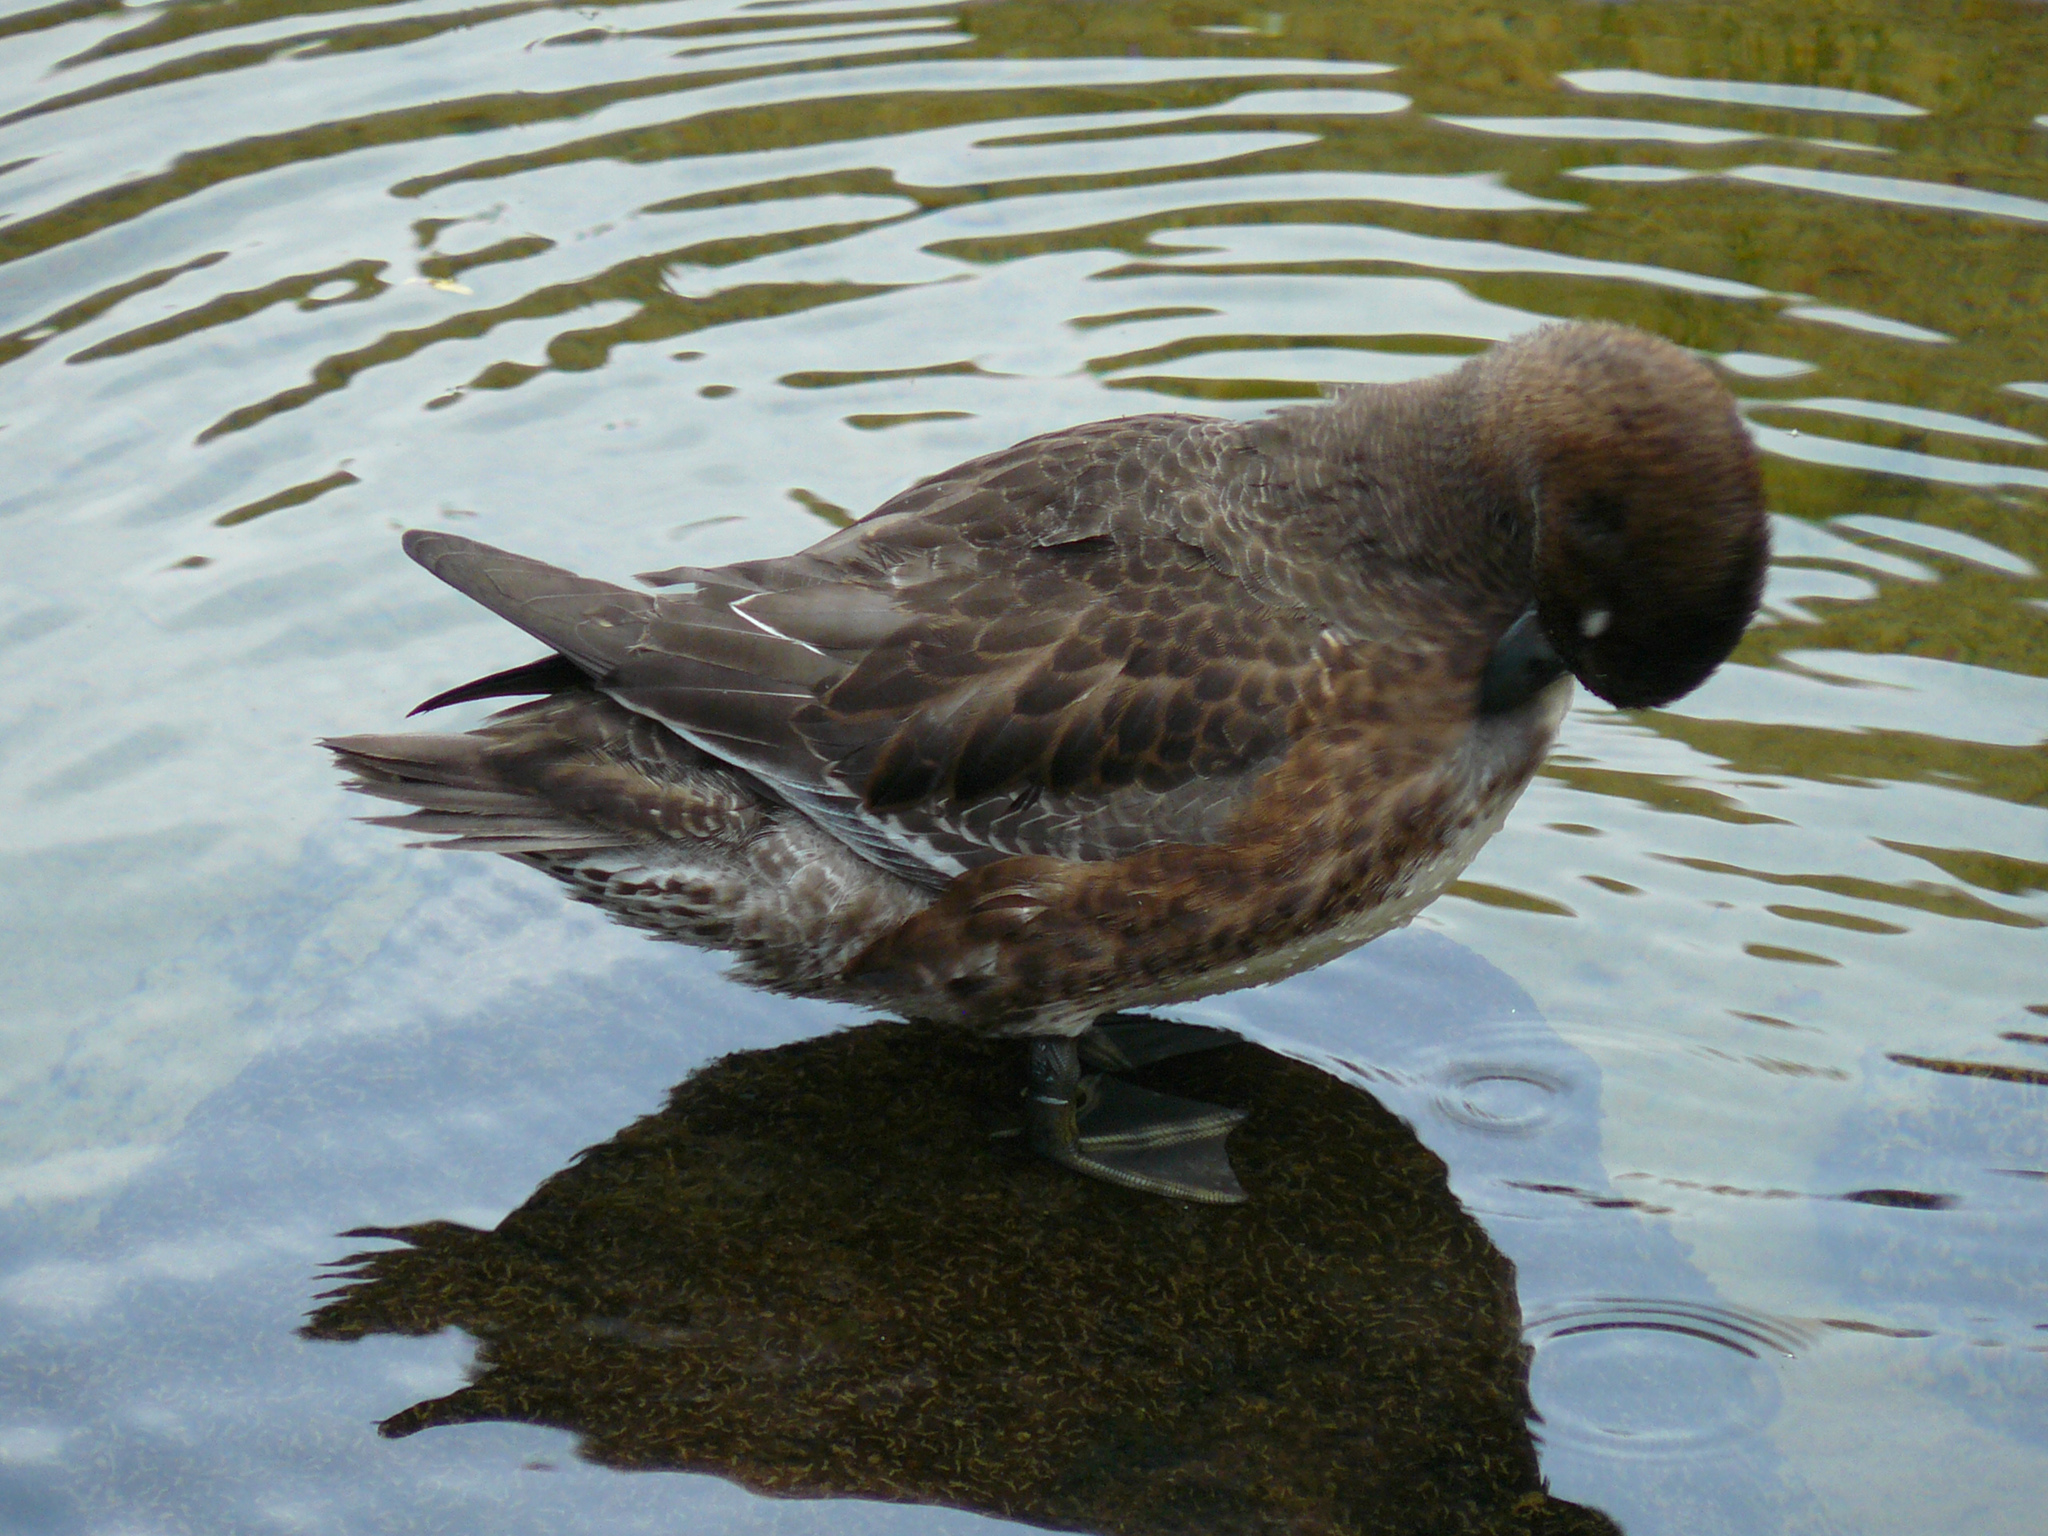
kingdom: Animalia
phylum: Chordata
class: Aves
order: Anseriformes
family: Anatidae
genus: Mareca
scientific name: Mareca penelope
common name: Eurasian wigeon
